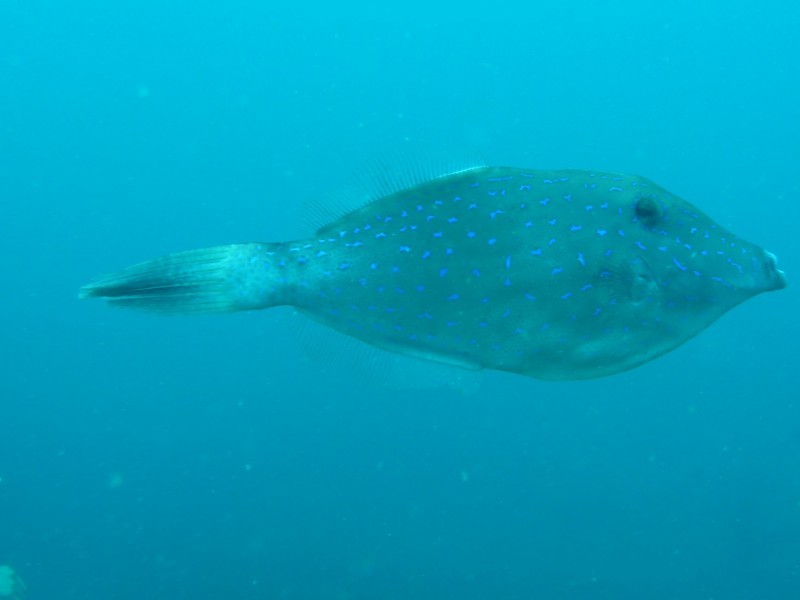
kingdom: Animalia
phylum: Chordata
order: Tetraodontiformes
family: Monacanthidae
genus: Aluterus
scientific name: Aluterus scriptus
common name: Scribbled leatherjacket filefish
